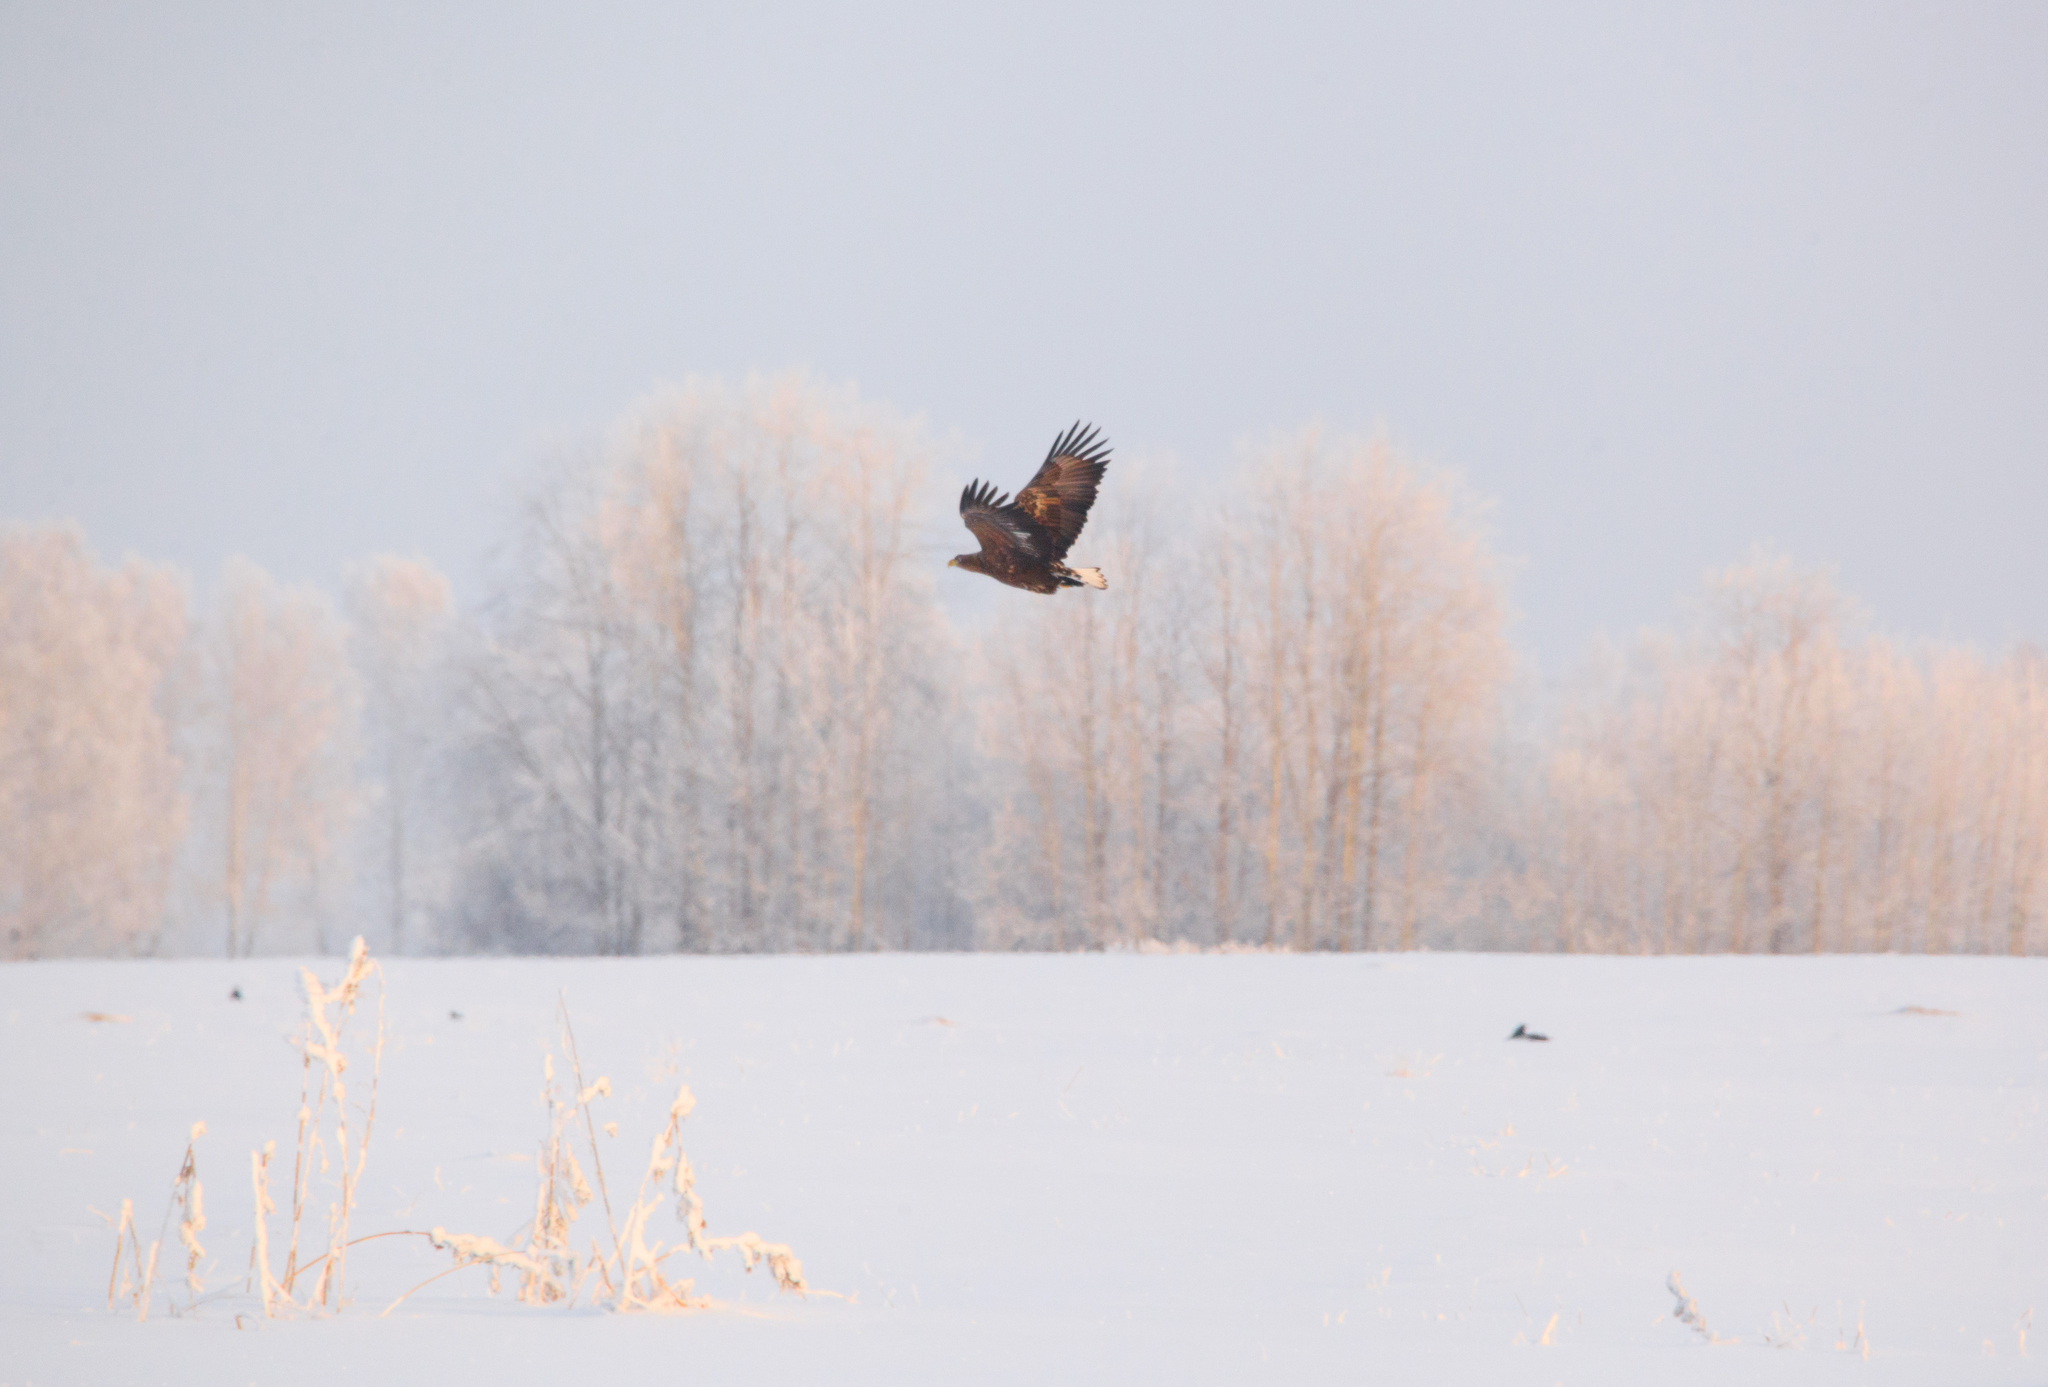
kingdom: Animalia
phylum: Chordata
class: Aves
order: Accipitriformes
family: Accipitridae
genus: Haliaeetus
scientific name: Haliaeetus albicilla
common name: White-tailed eagle
